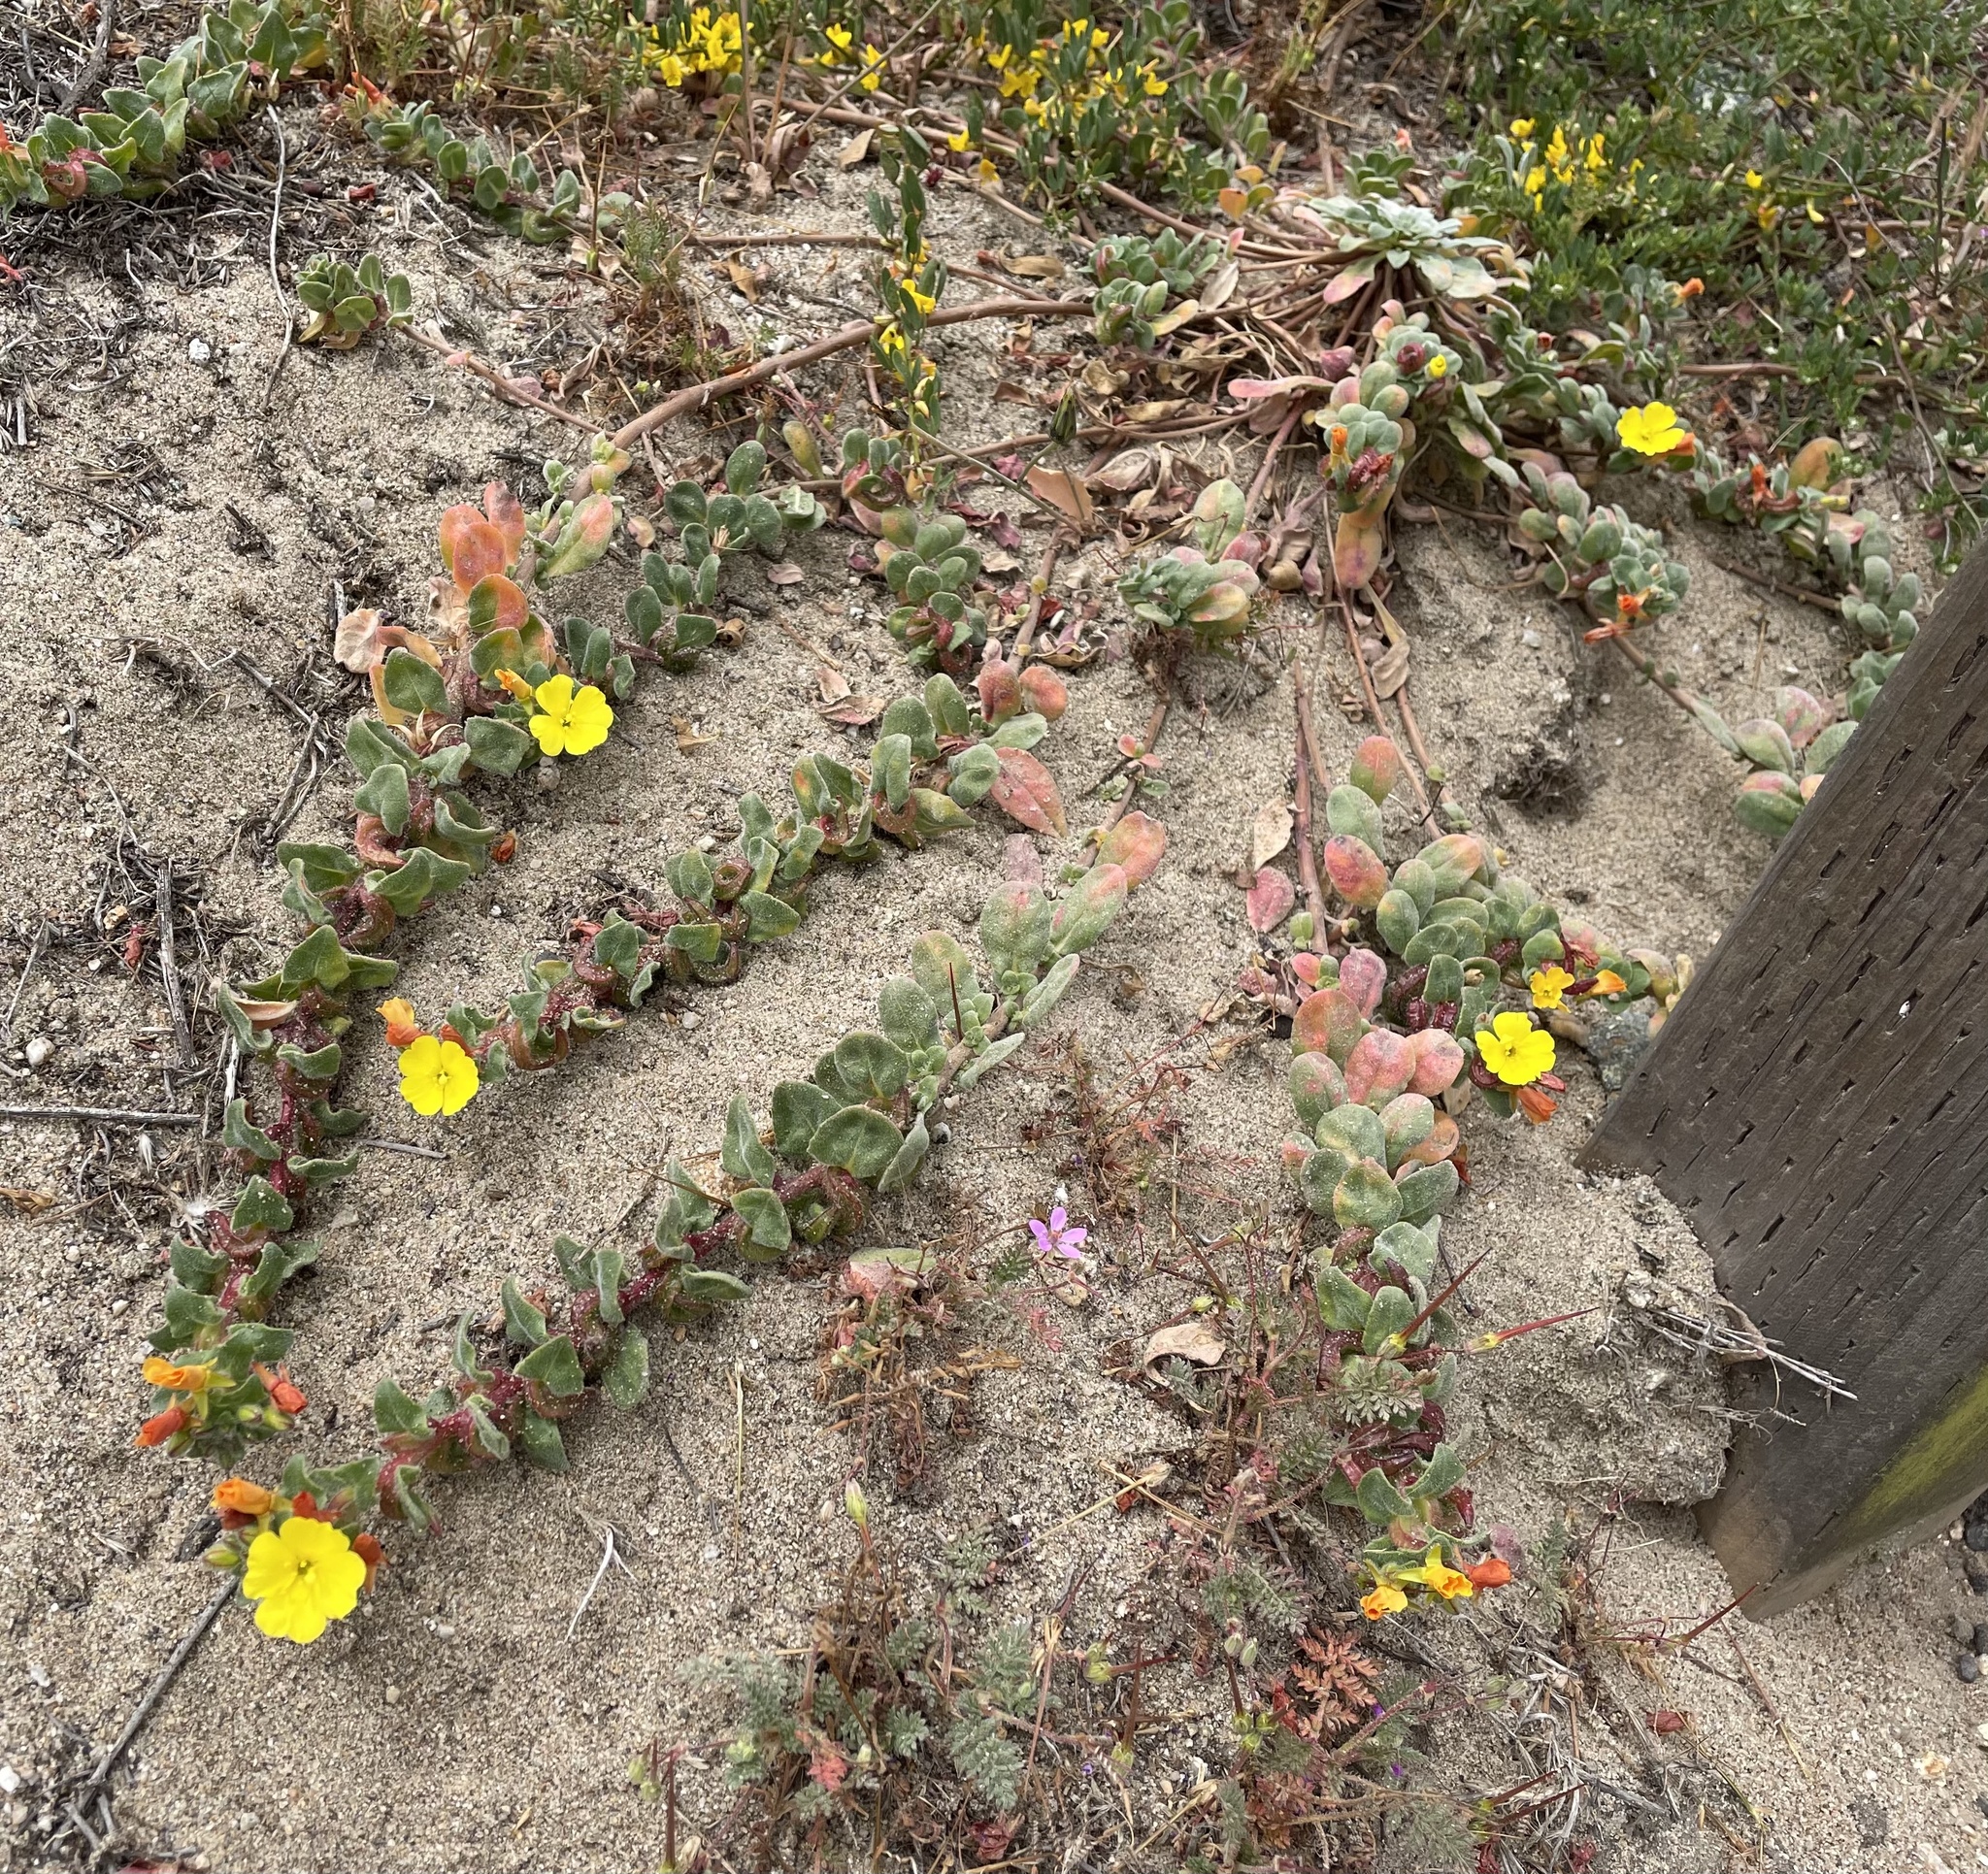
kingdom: Plantae
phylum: Tracheophyta
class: Magnoliopsida
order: Myrtales
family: Onagraceae
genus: Camissoniopsis
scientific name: Camissoniopsis cheiranthifolia
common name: Beach suncup
